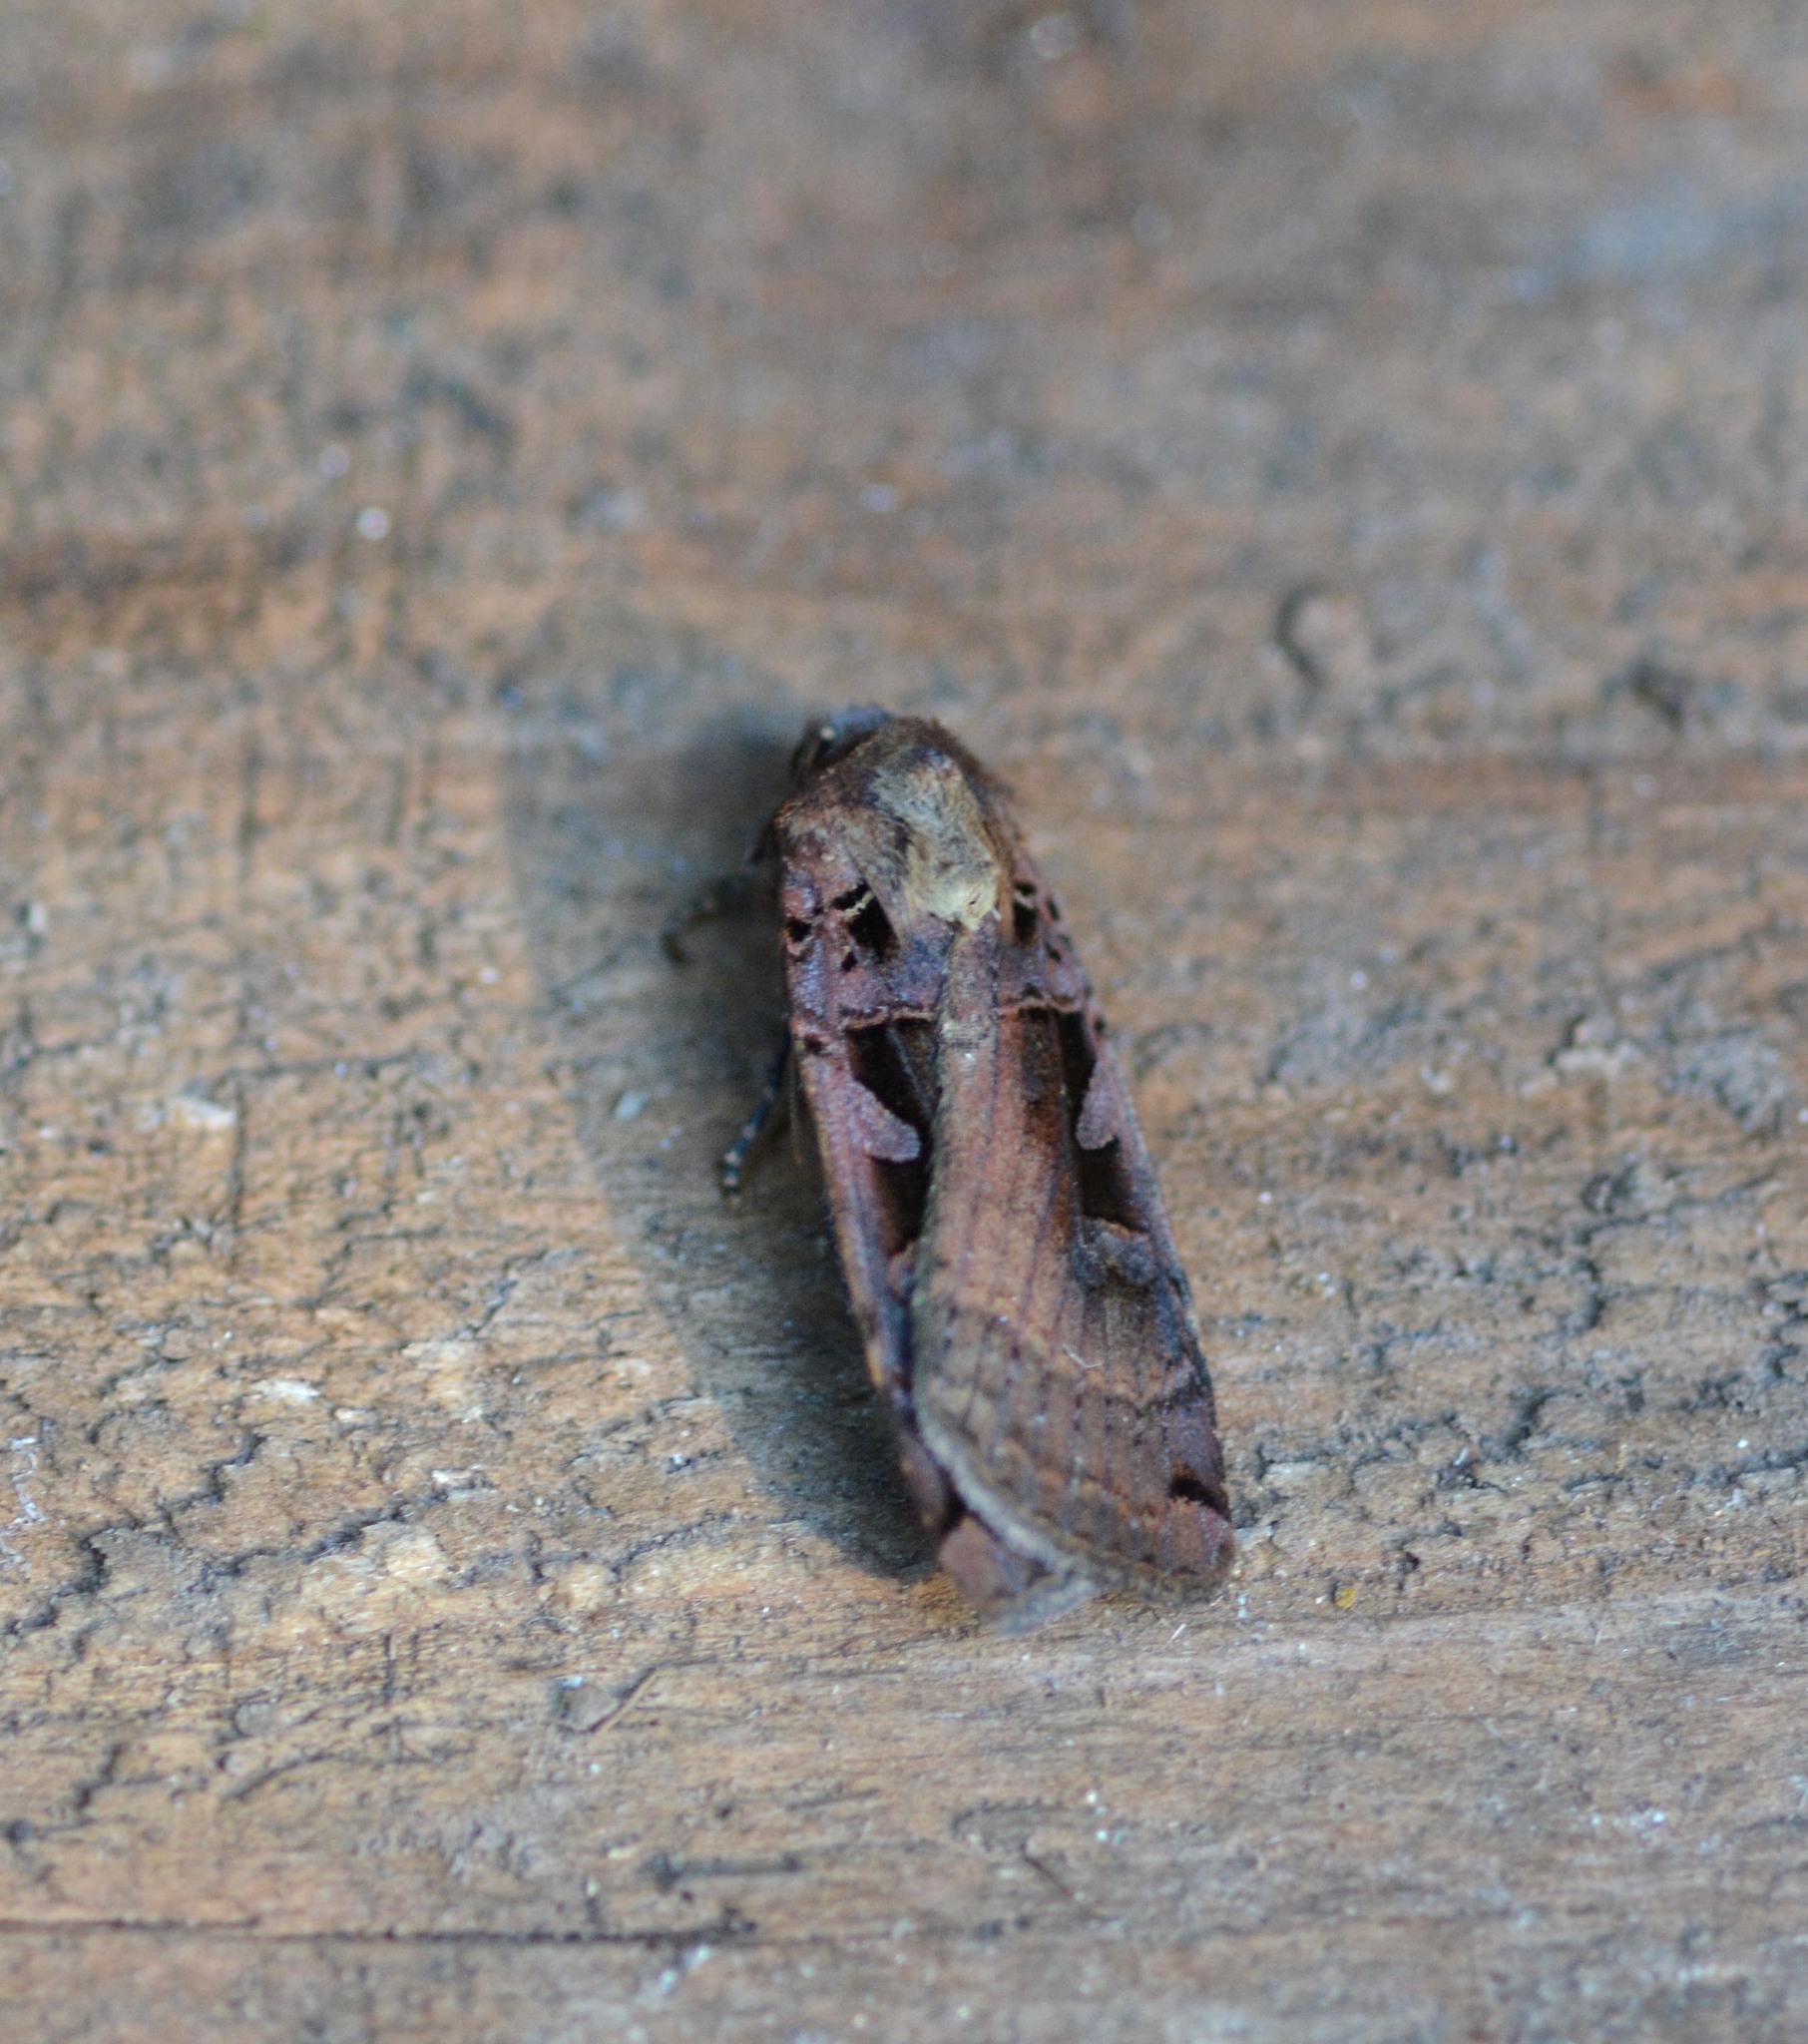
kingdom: Animalia
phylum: Arthropoda
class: Insecta
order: Lepidoptera
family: Noctuidae
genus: Xestia
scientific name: Xestia ditrapezium
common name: Triple-spotted clay
